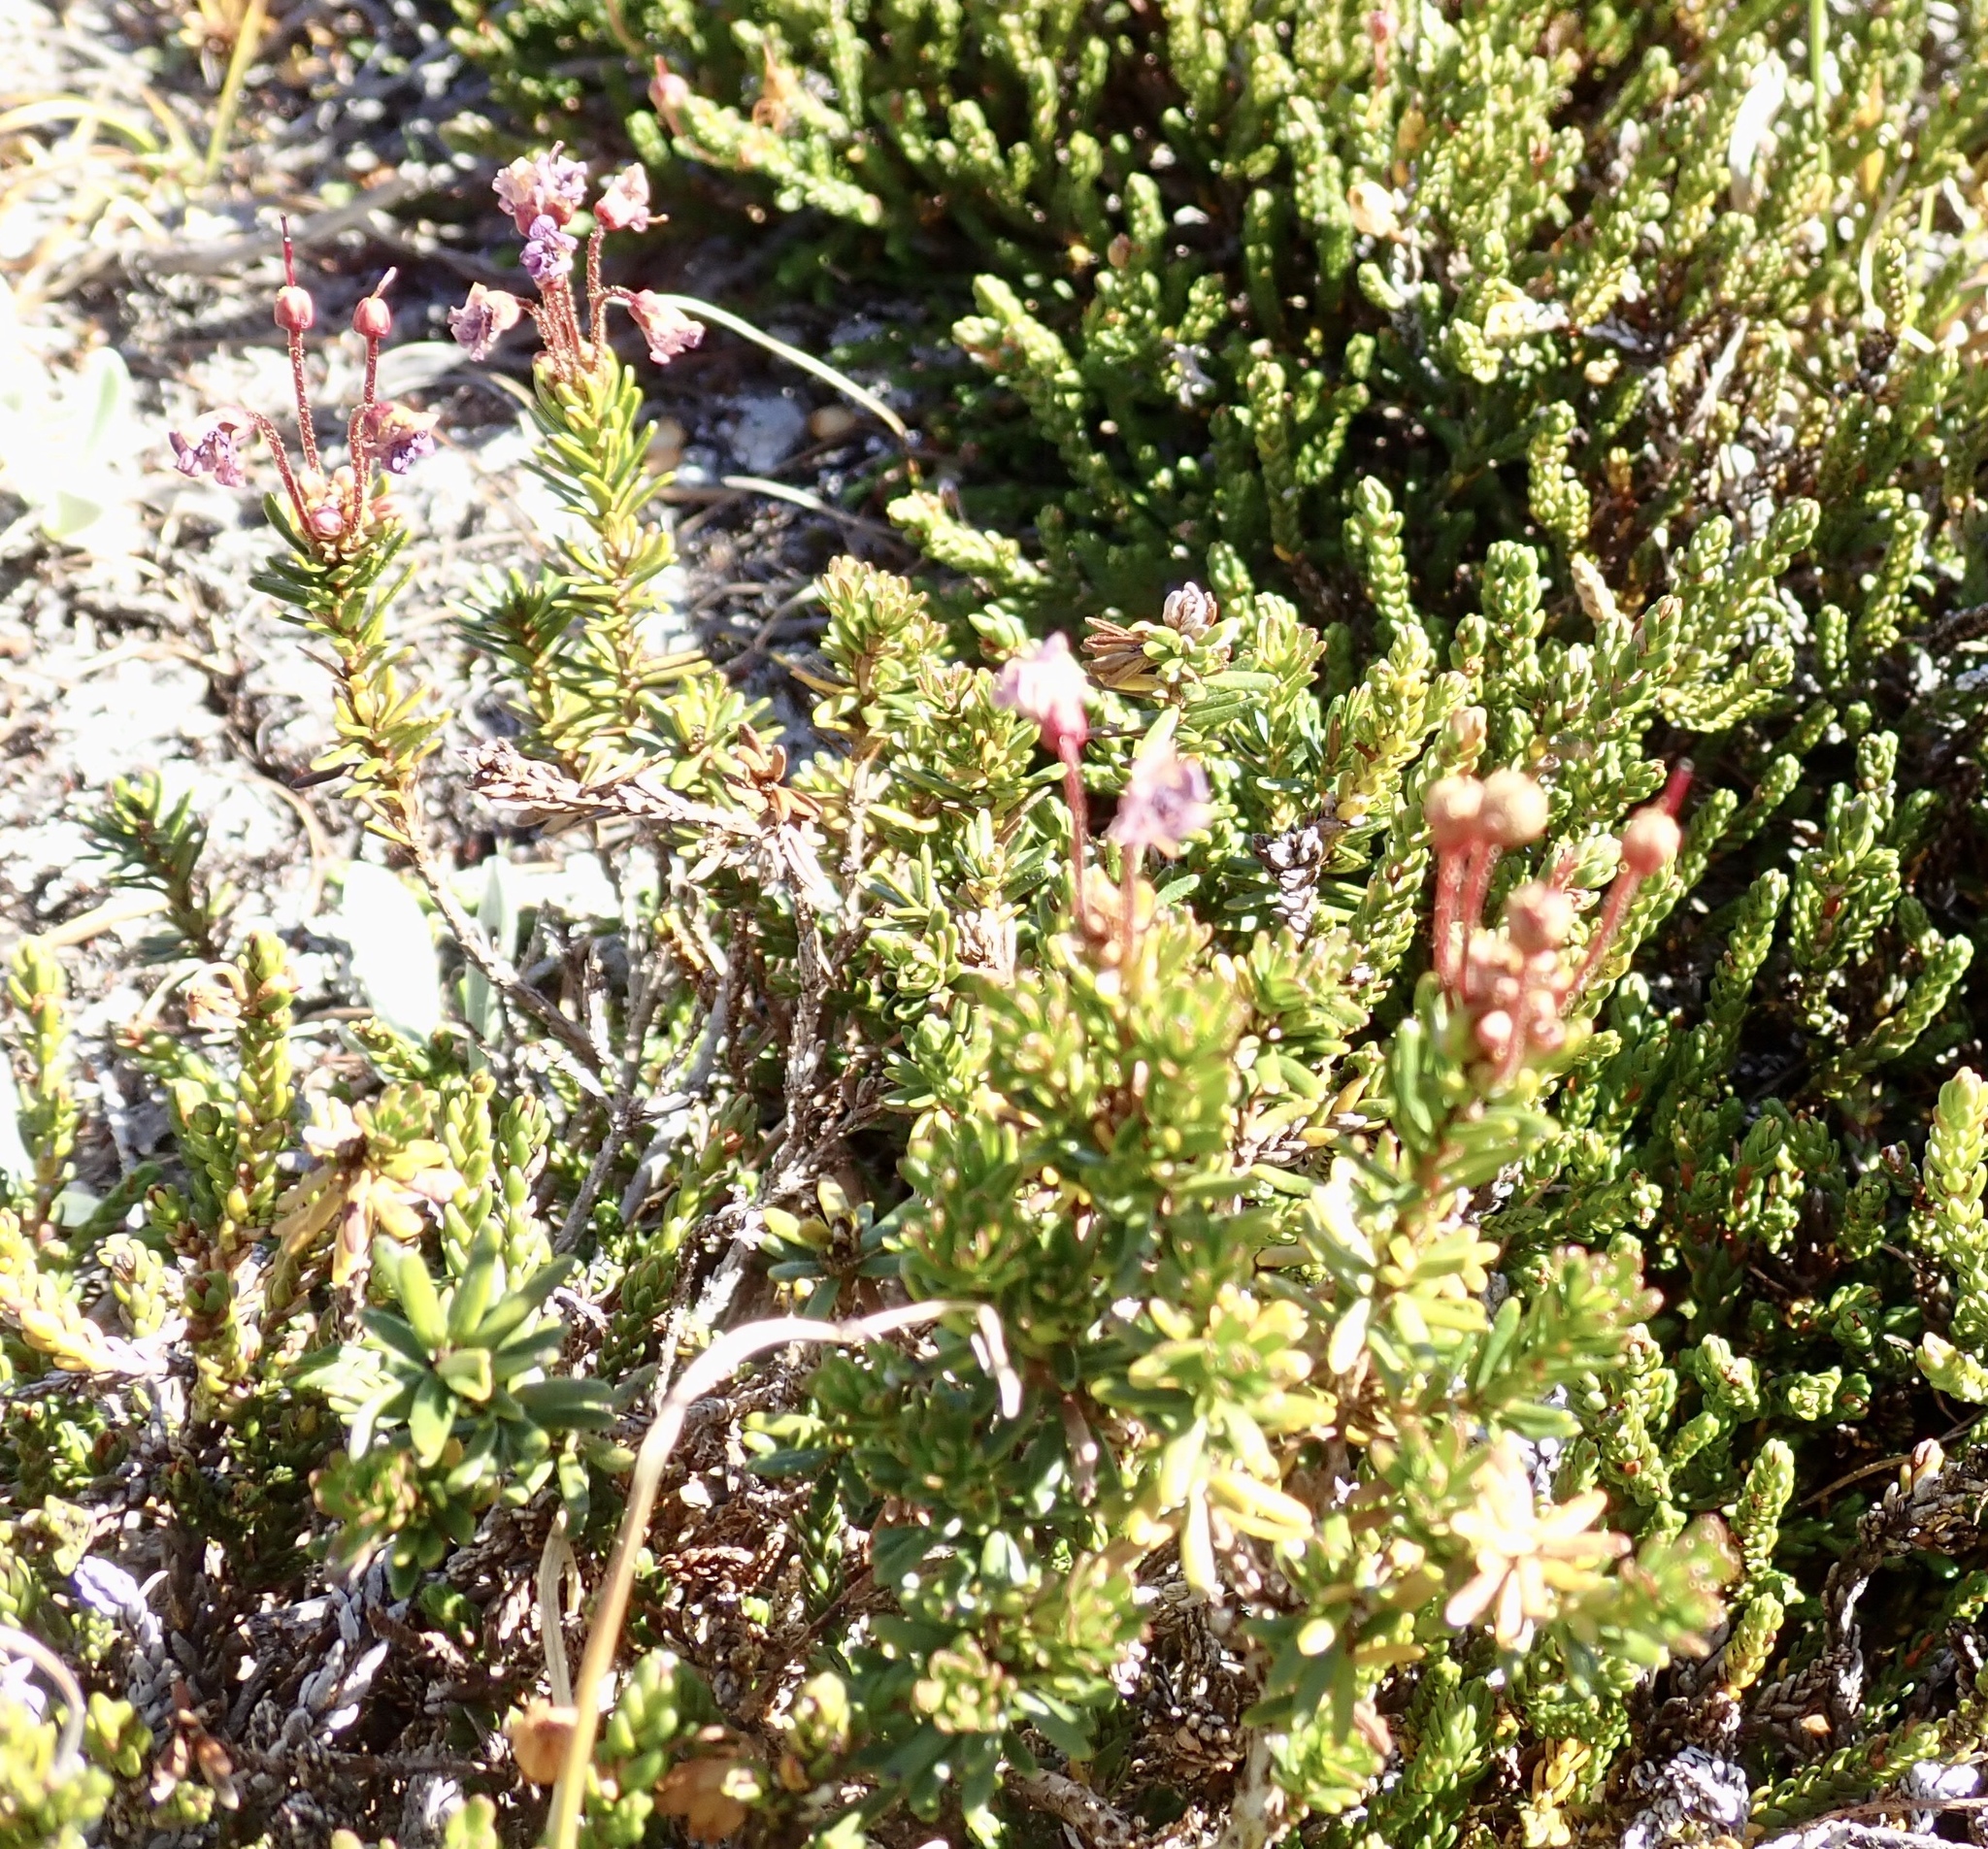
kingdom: Plantae
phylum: Tracheophyta
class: Magnoliopsida
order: Ericales
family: Ericaceae
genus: Phyllodoce
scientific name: Phyllodoce empetriformis
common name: Pink mountain heather
